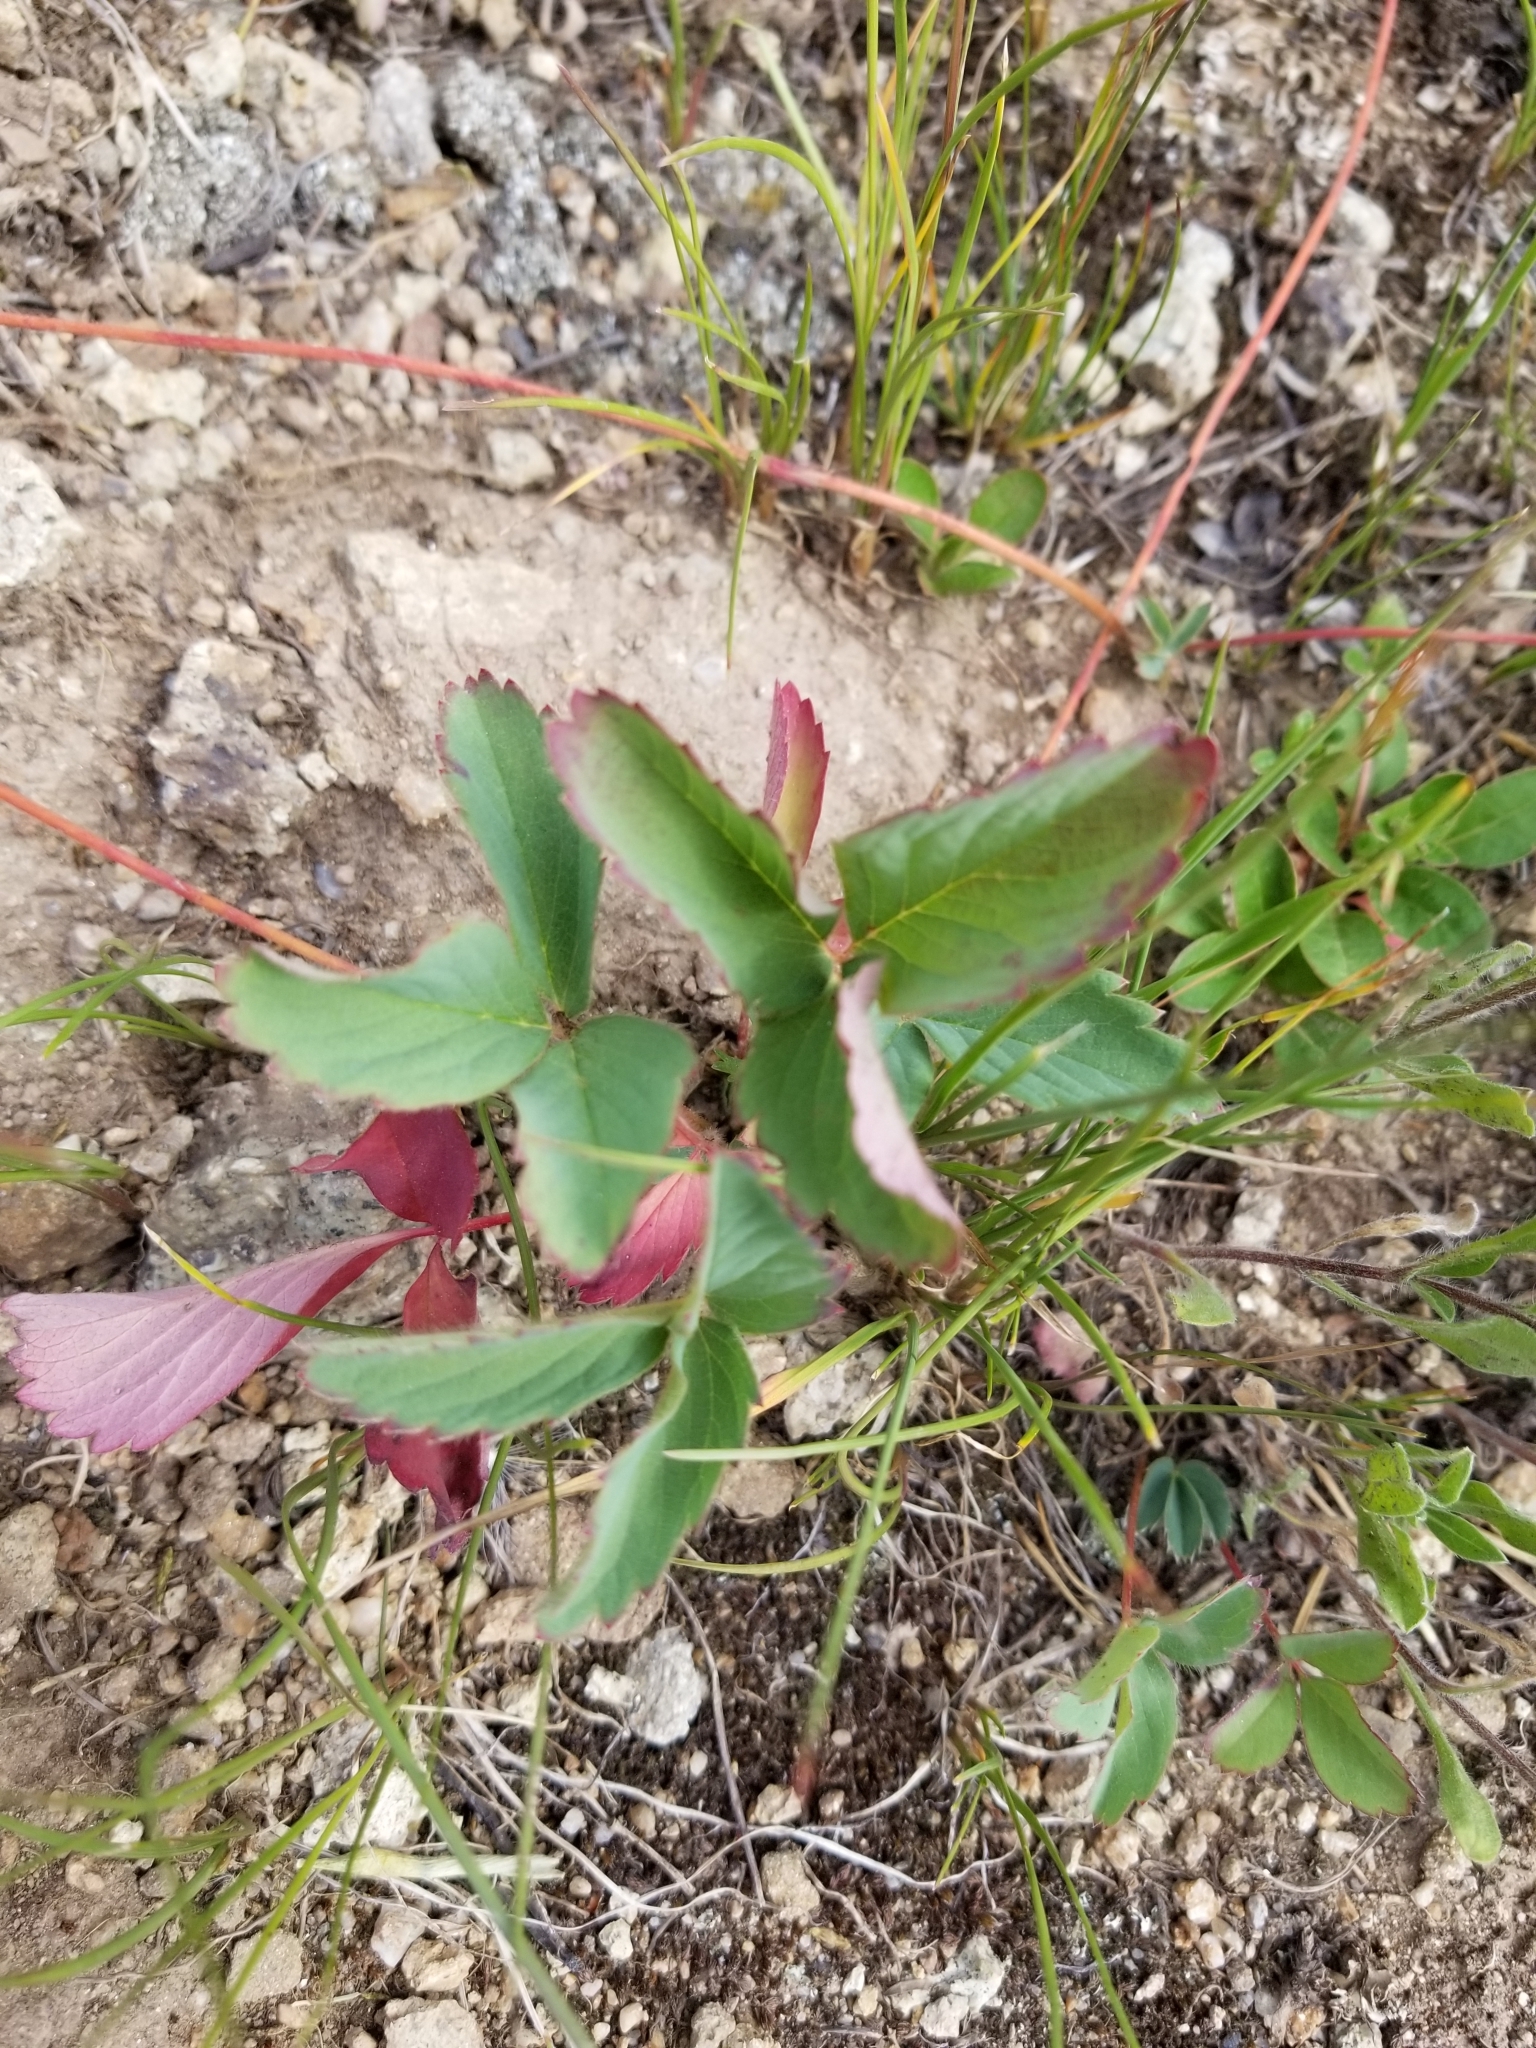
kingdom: Plantae
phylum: Tracheophyta
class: Magnoliopsida
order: Rosales
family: Rosaceae
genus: Fragaria
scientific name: Fragaria virginiana
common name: Thickleaved wild strawberry
